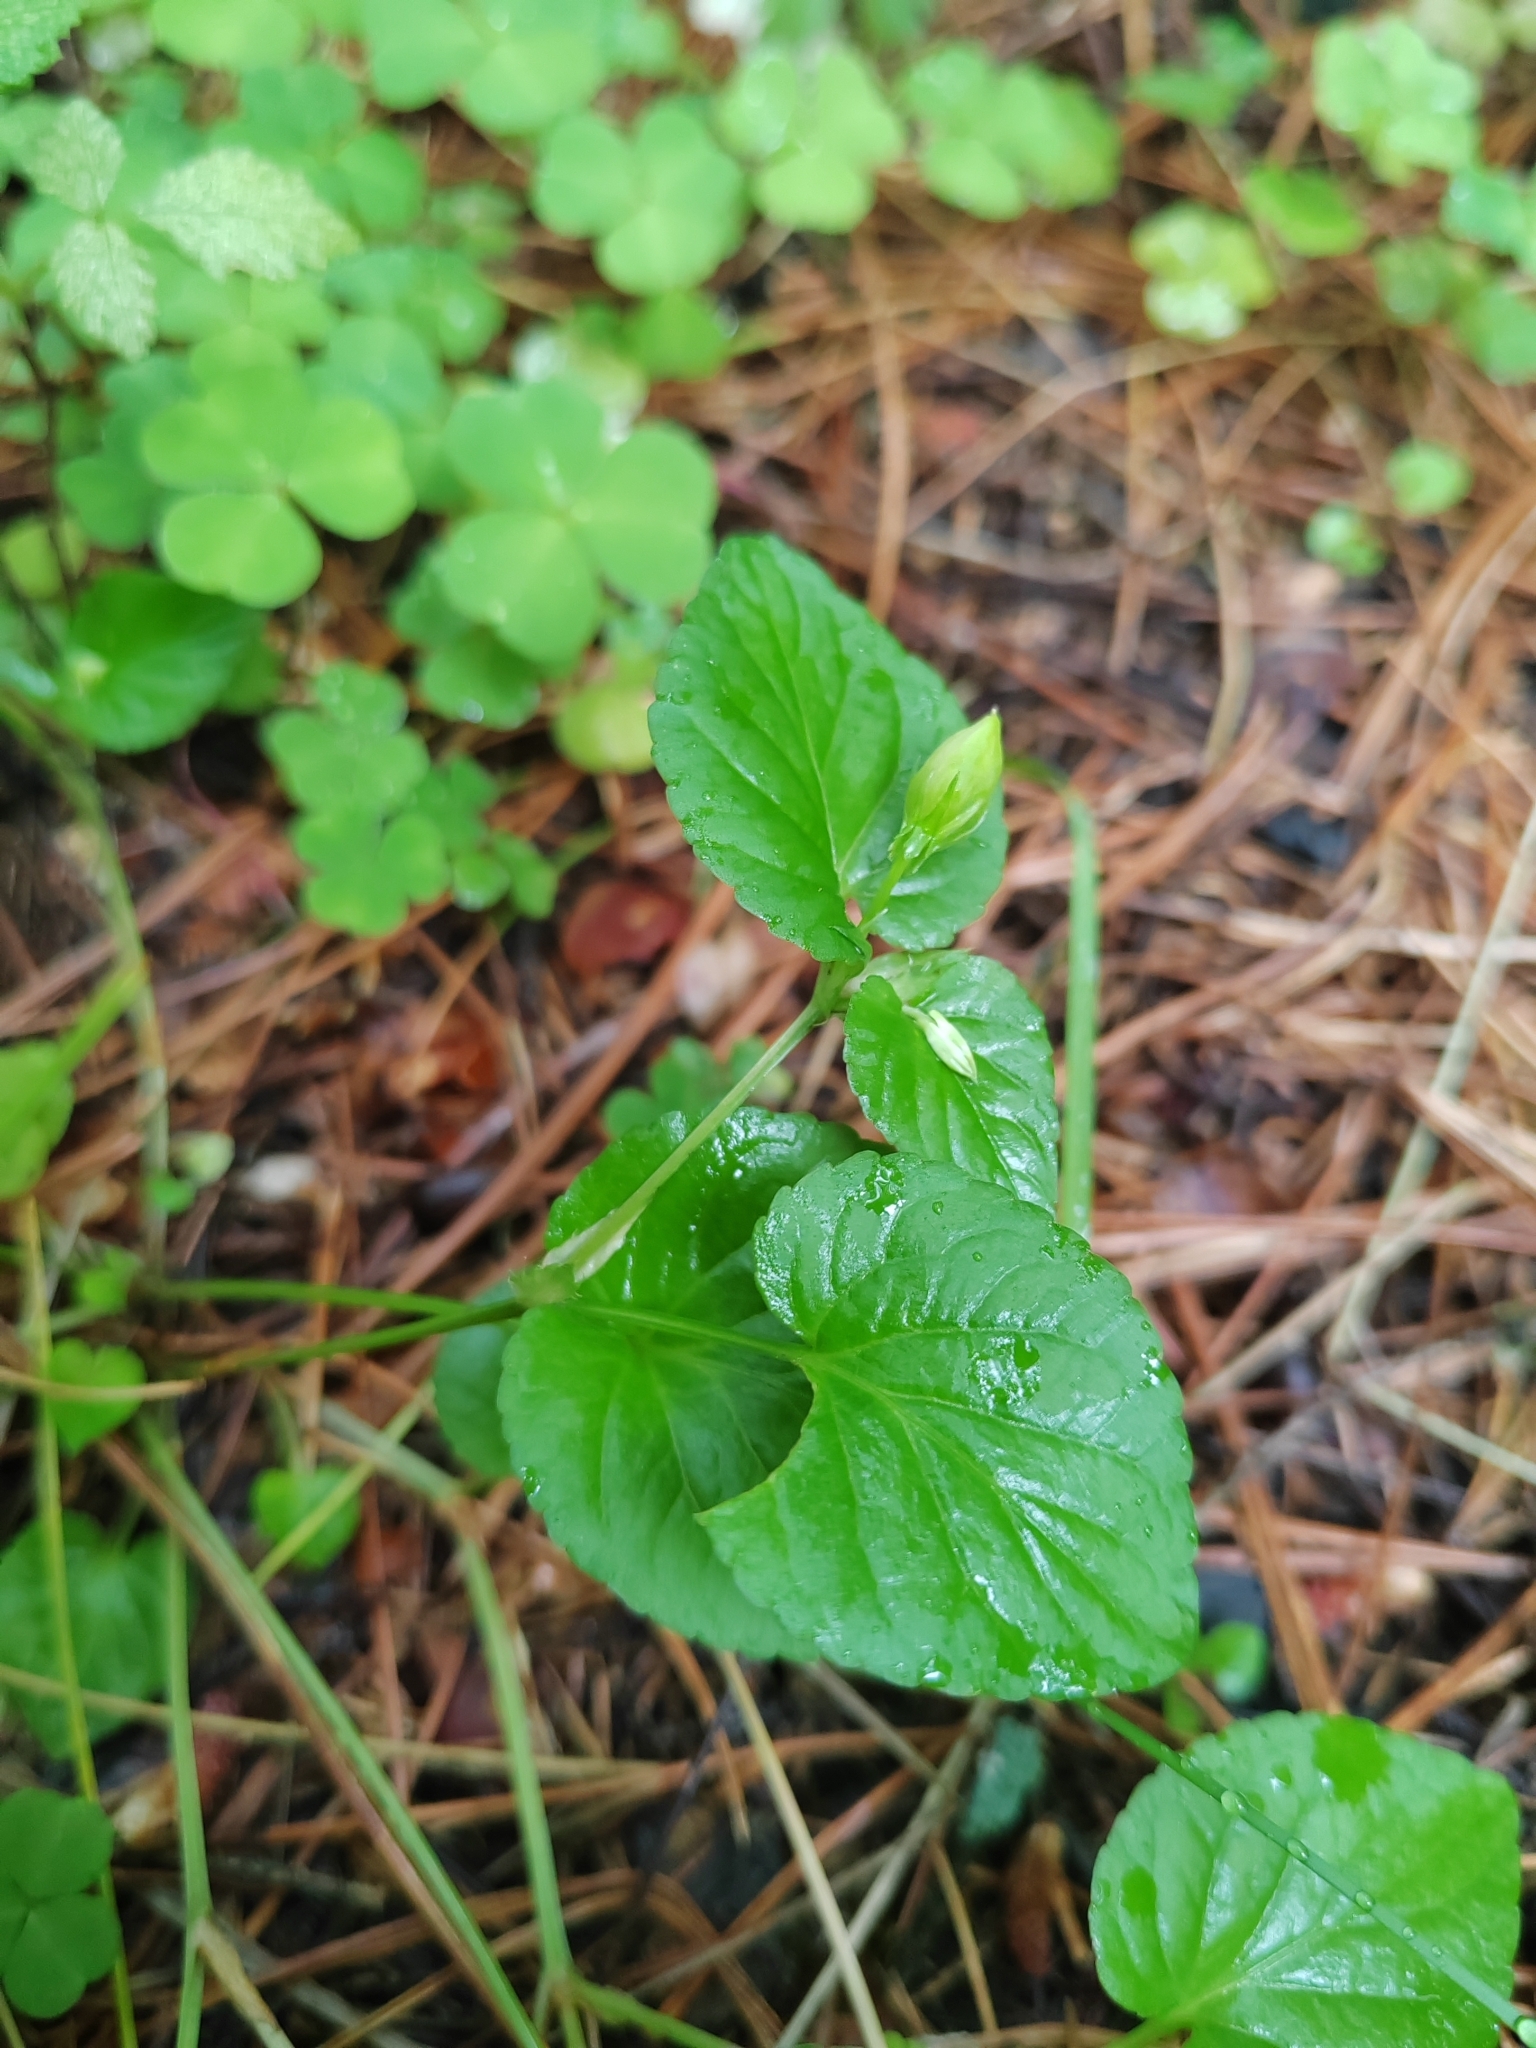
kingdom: Plantae
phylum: Tracheophyta
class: Magnoliopsida
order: Malpighiales
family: Violaceae
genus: Viola
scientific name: Viola
